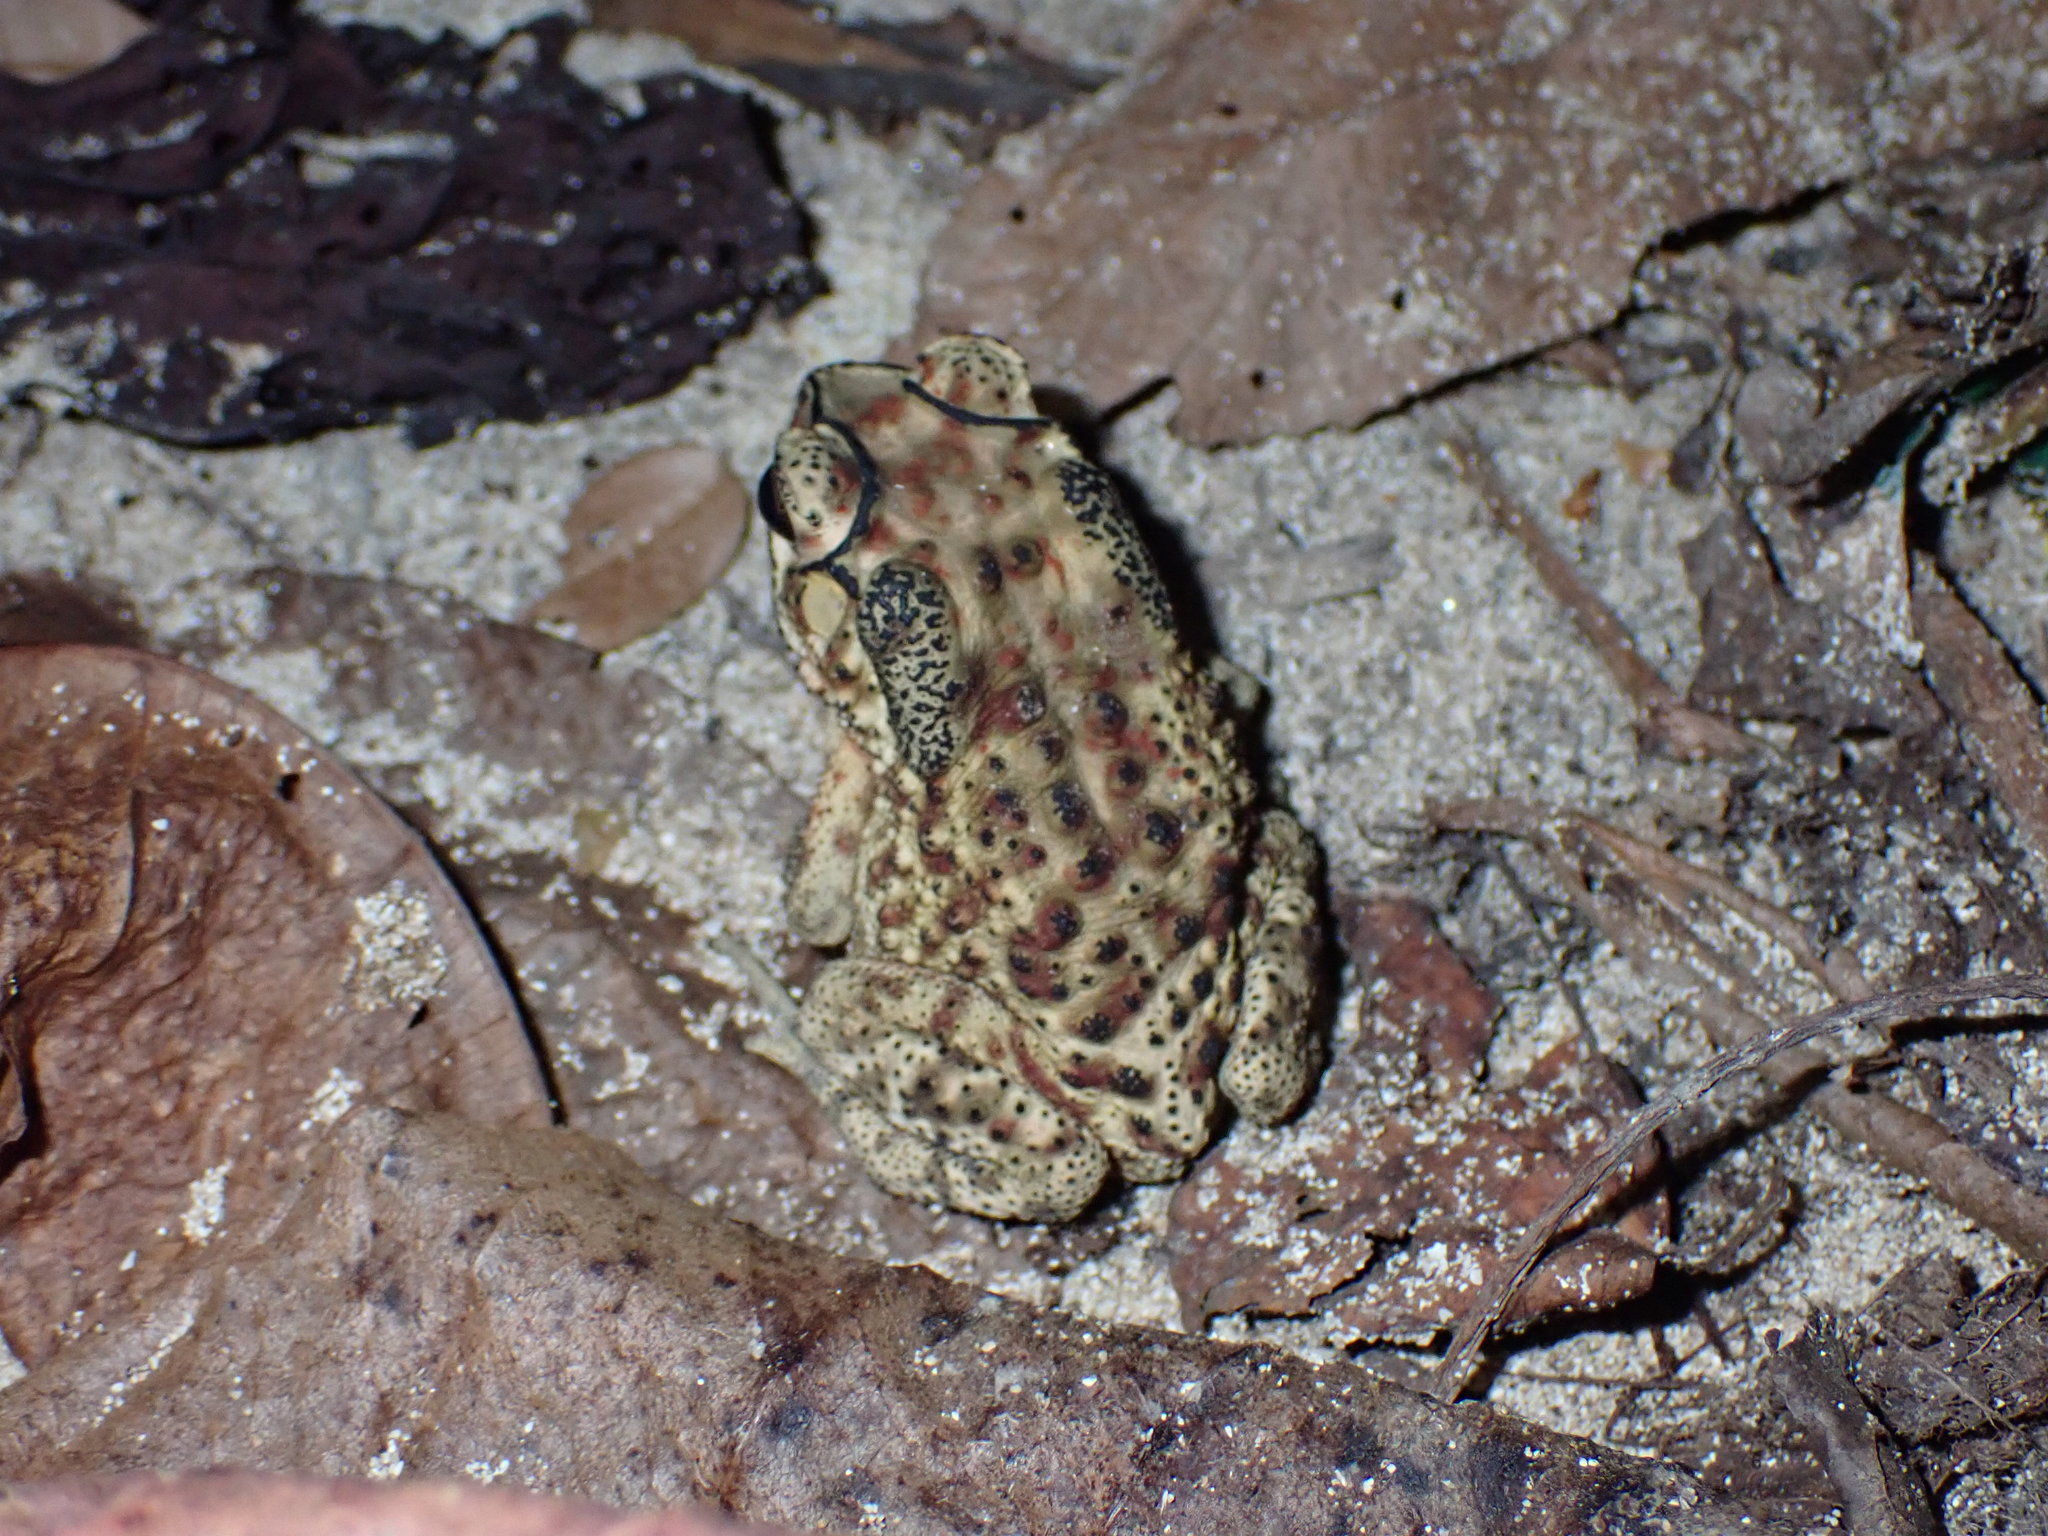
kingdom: Animalia
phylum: Chordata
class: Amphibia
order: Anura
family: Bufonidae
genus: Duttaphrynus
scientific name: Duttaphrynus melanostictus
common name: Common sunda toad
